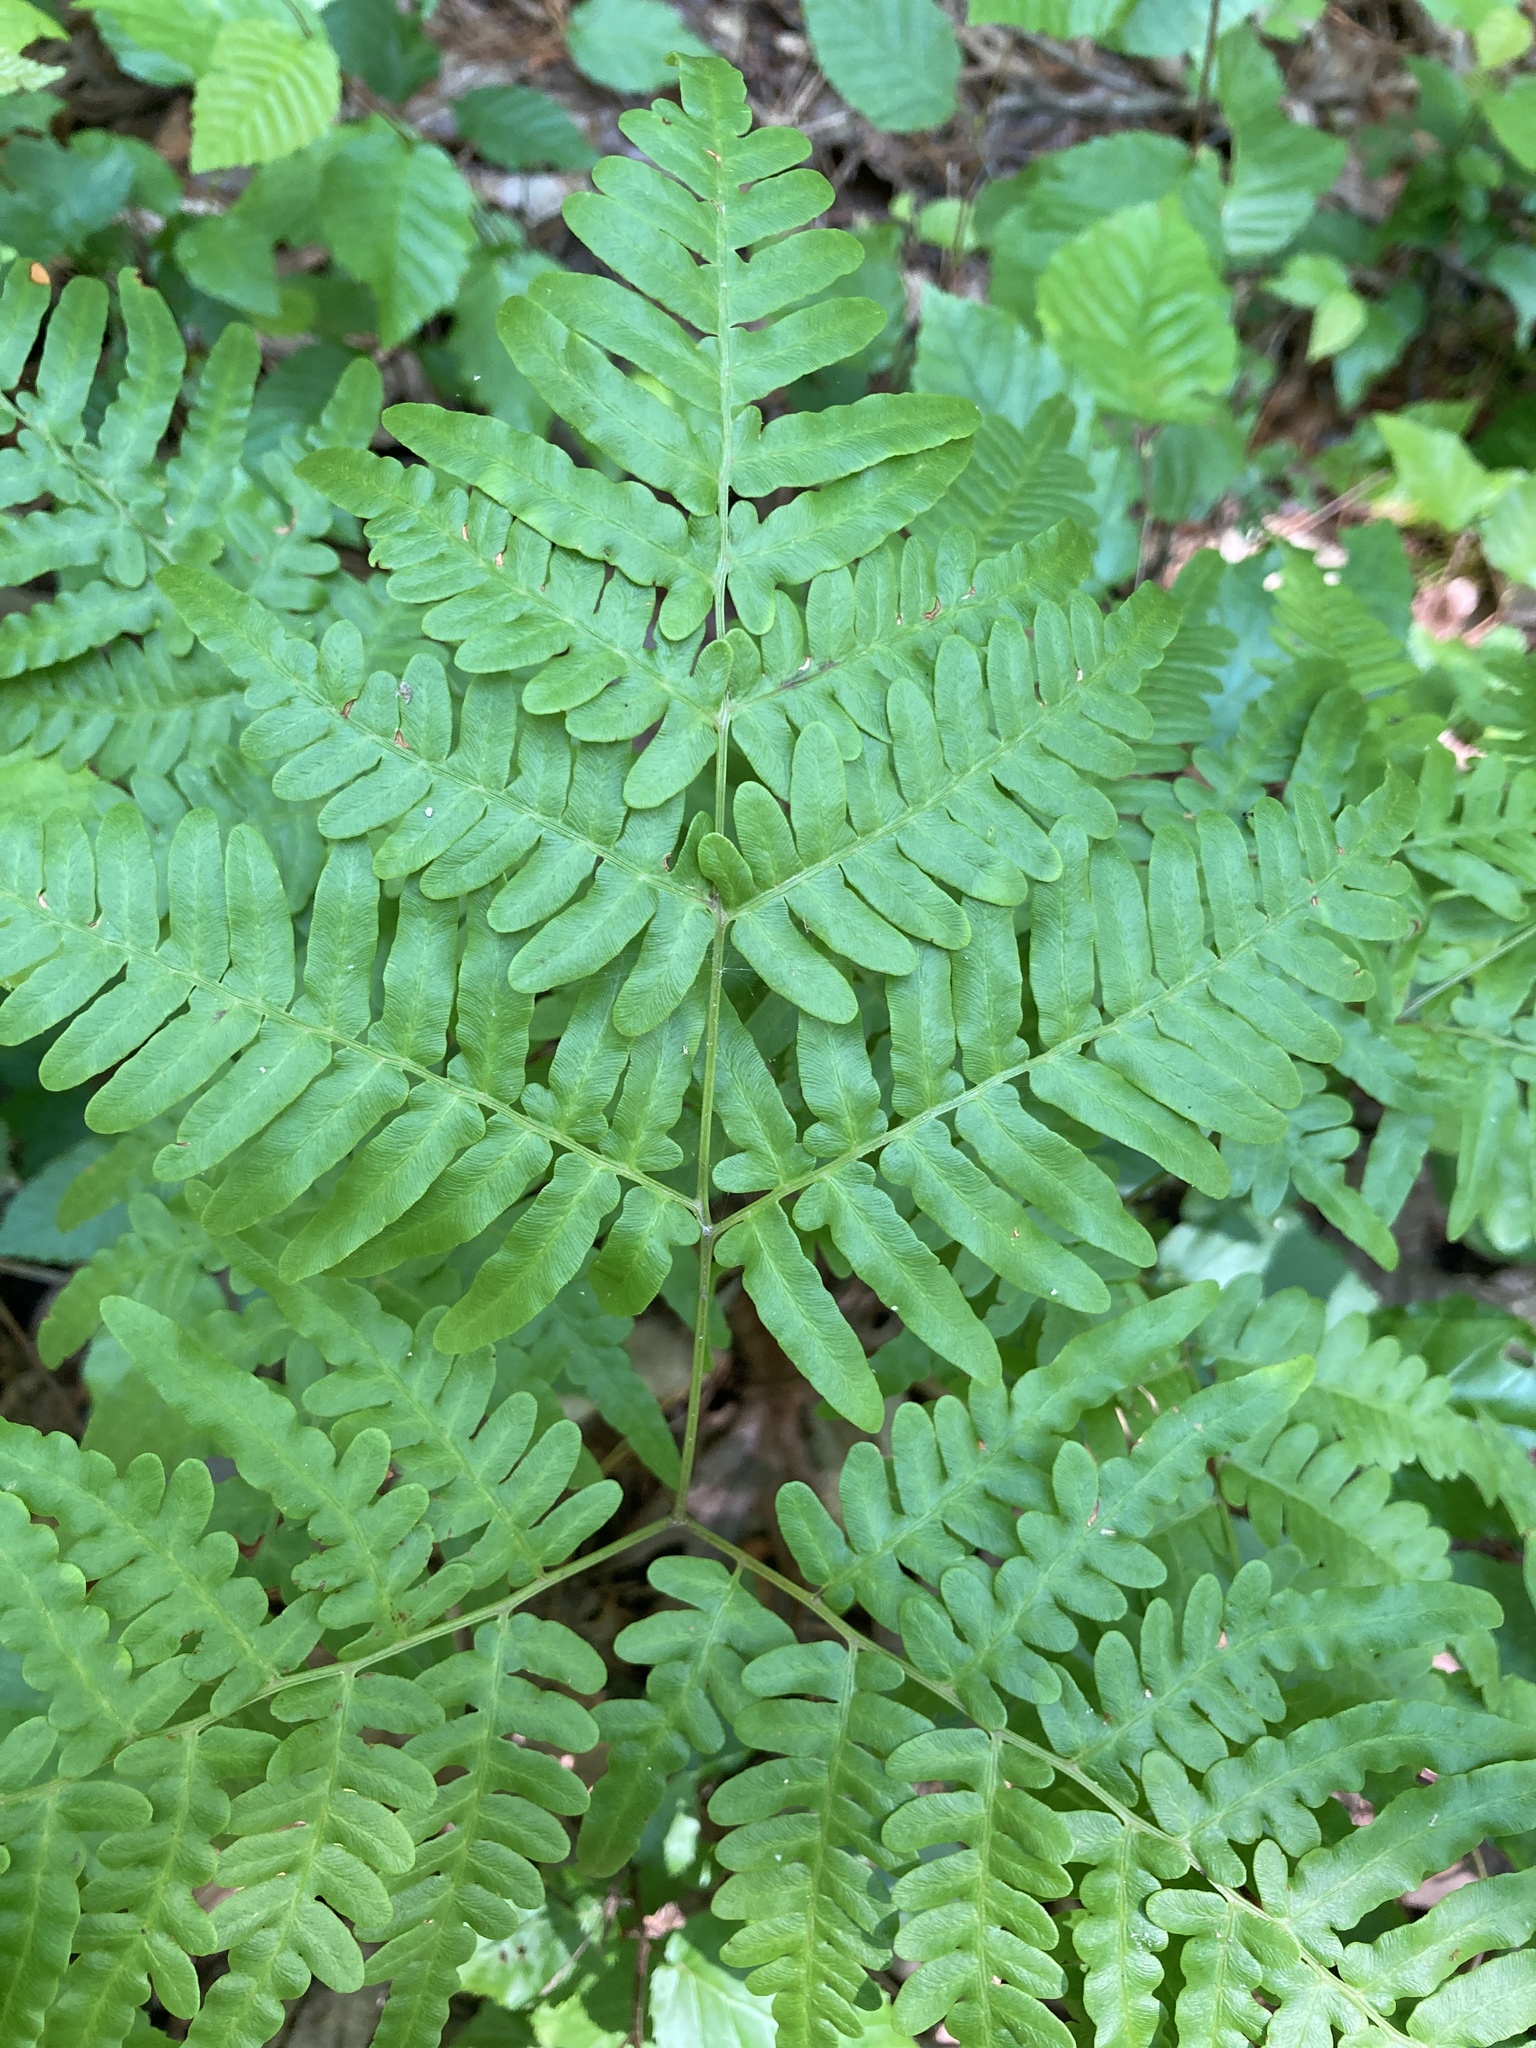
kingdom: Plantae
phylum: Tracheophyta
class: Polypodiopsida
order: Polypodiales
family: Dennstaedtiaceae
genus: Pteridium
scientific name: Pteridium aquilinum
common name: Bracken
